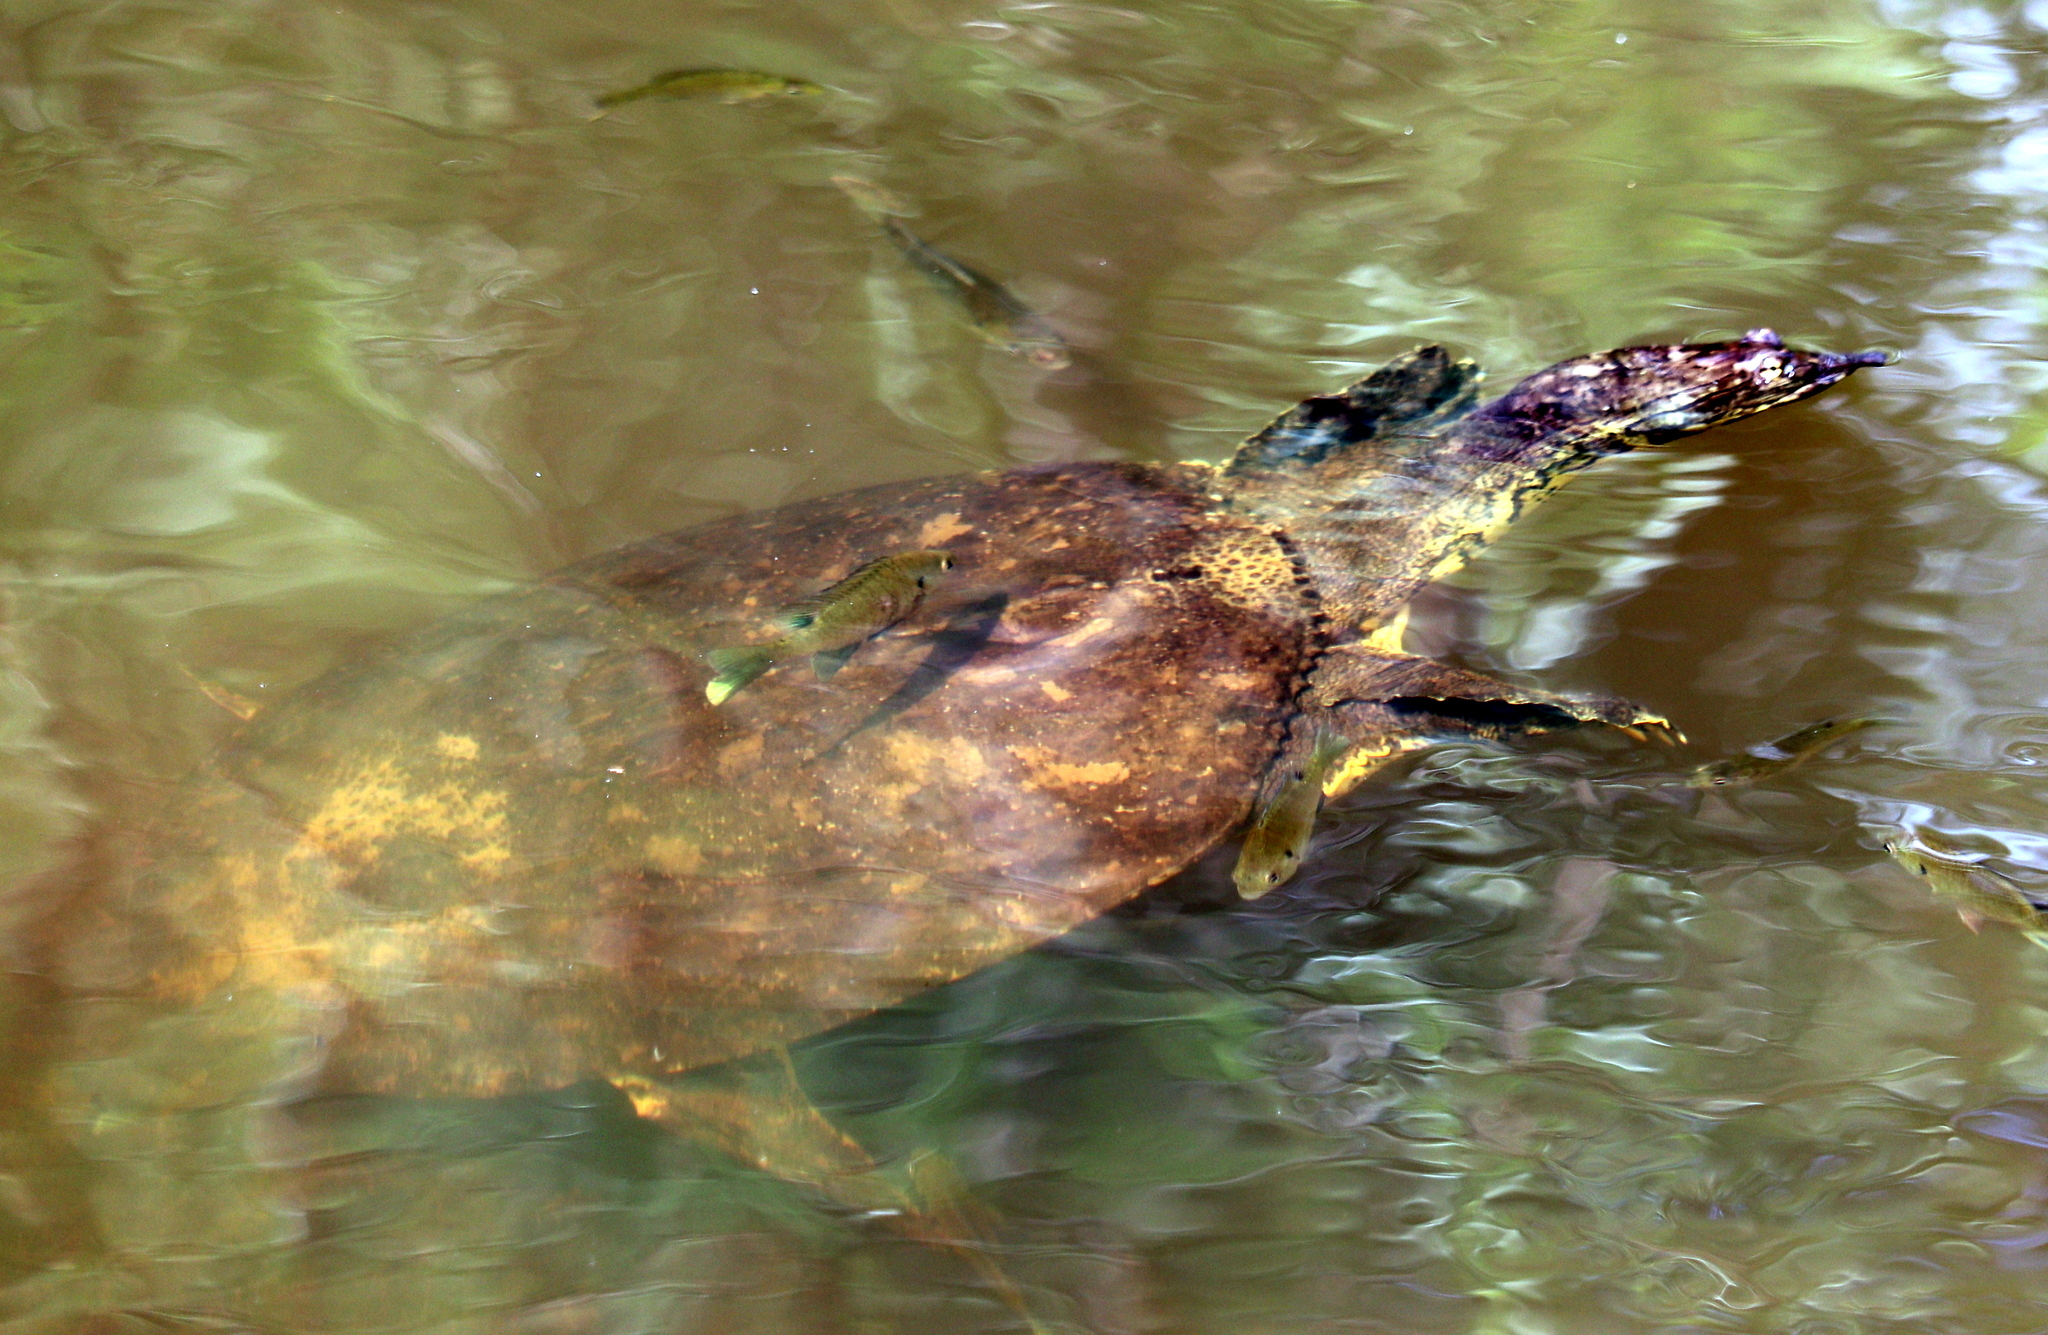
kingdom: Animalia
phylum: Chordata
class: Testudines
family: Trionychidae
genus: Apalone
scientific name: Apalone spinifera
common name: Spiny softshell turtle
